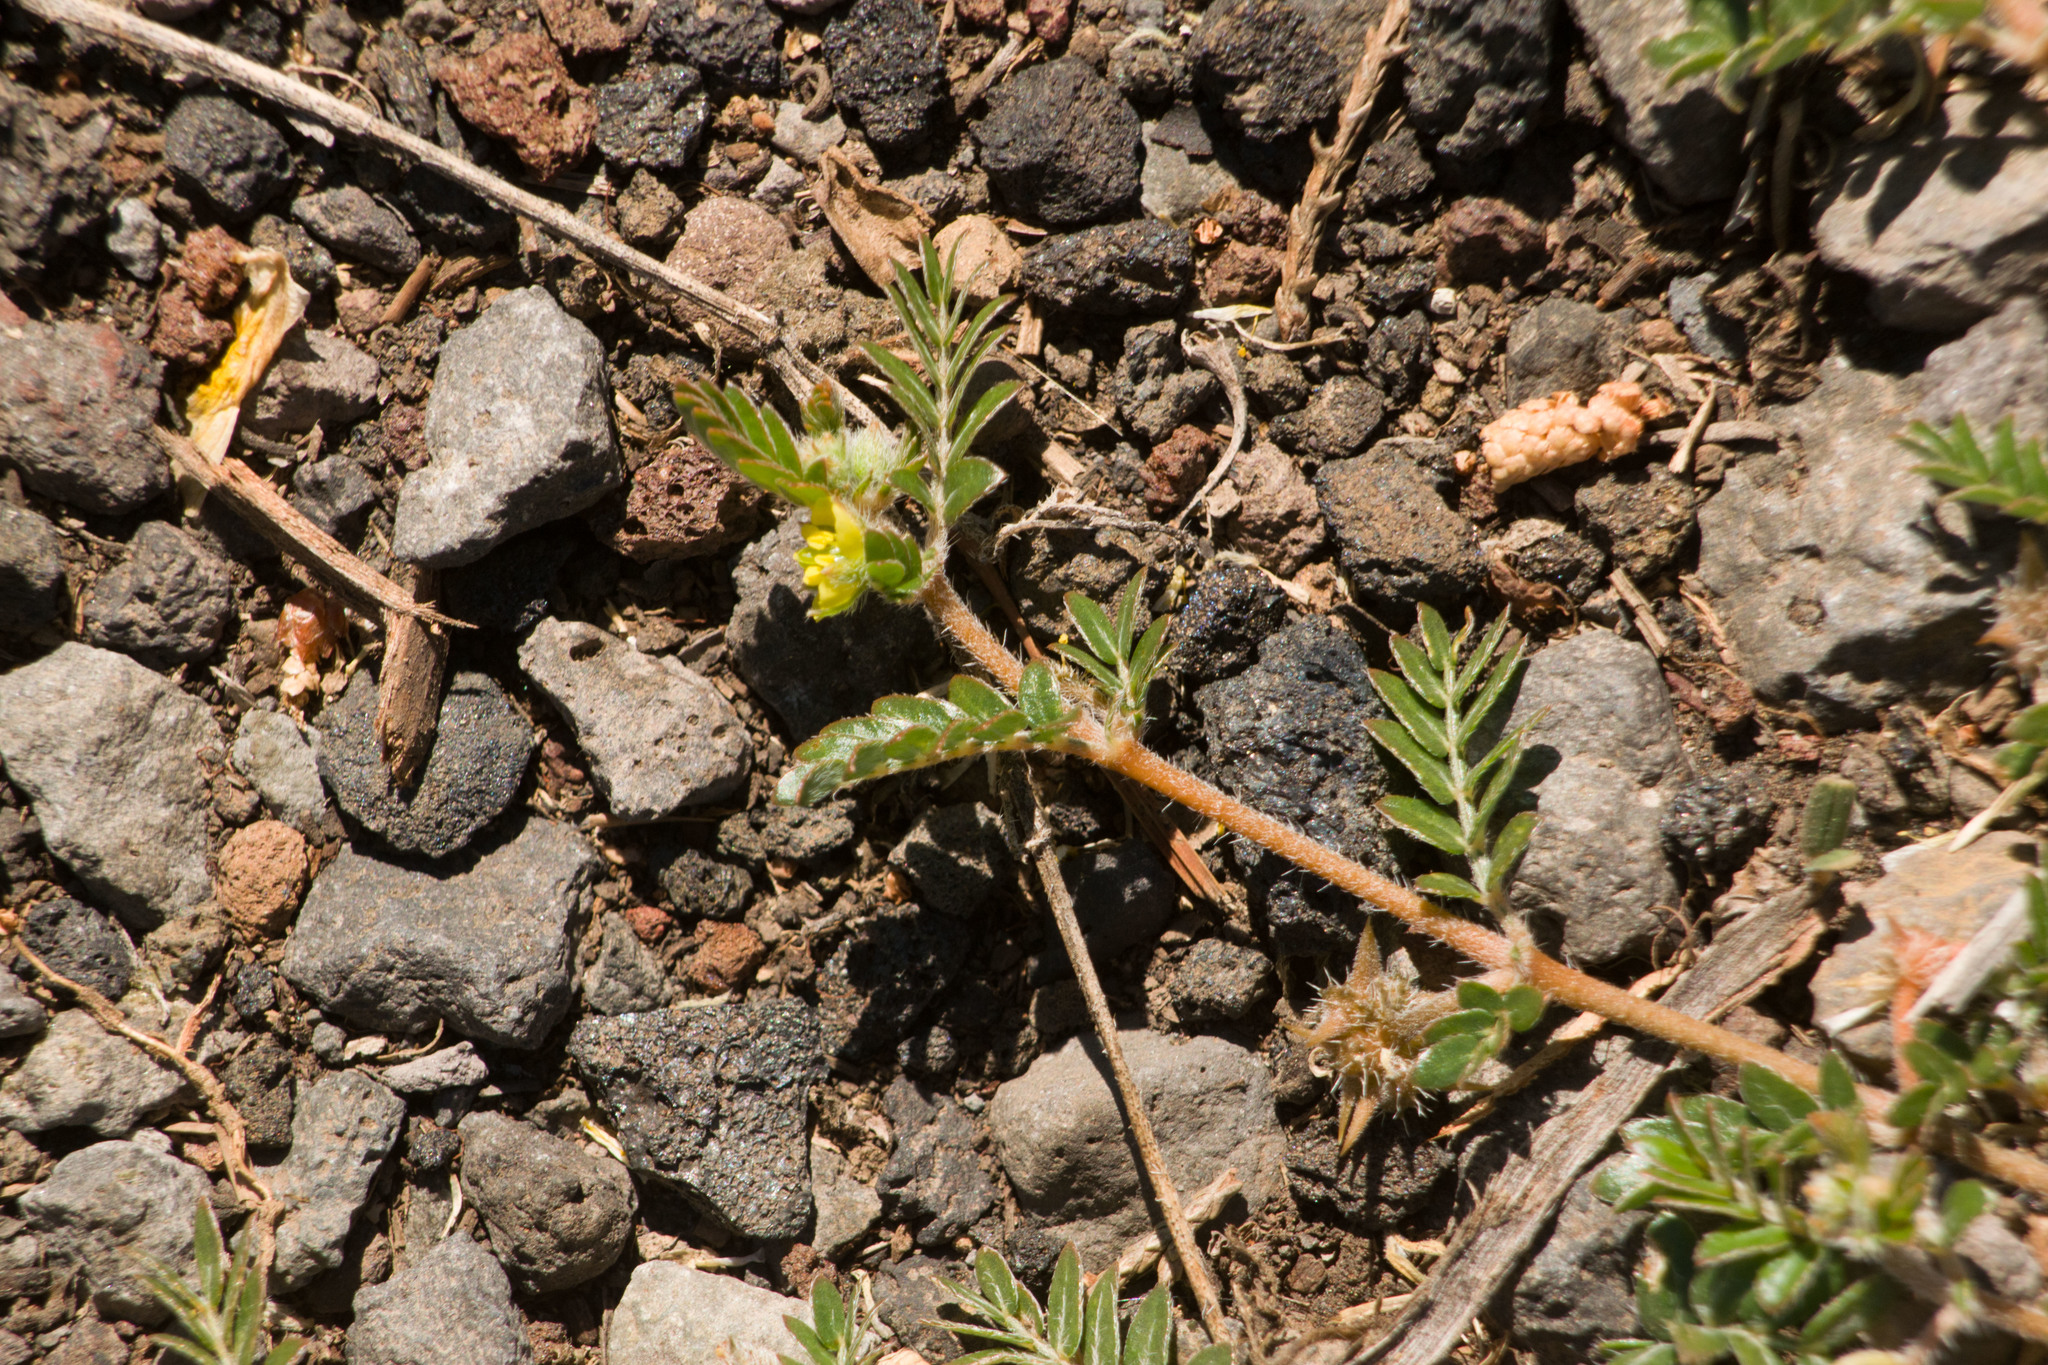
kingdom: Plantae
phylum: Tracheophyta
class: Magnoliopsida
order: Zygophyllales
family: Zygophyllaceae
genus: Tribulus
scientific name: Tribulus terrestris
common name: Puncturevine
